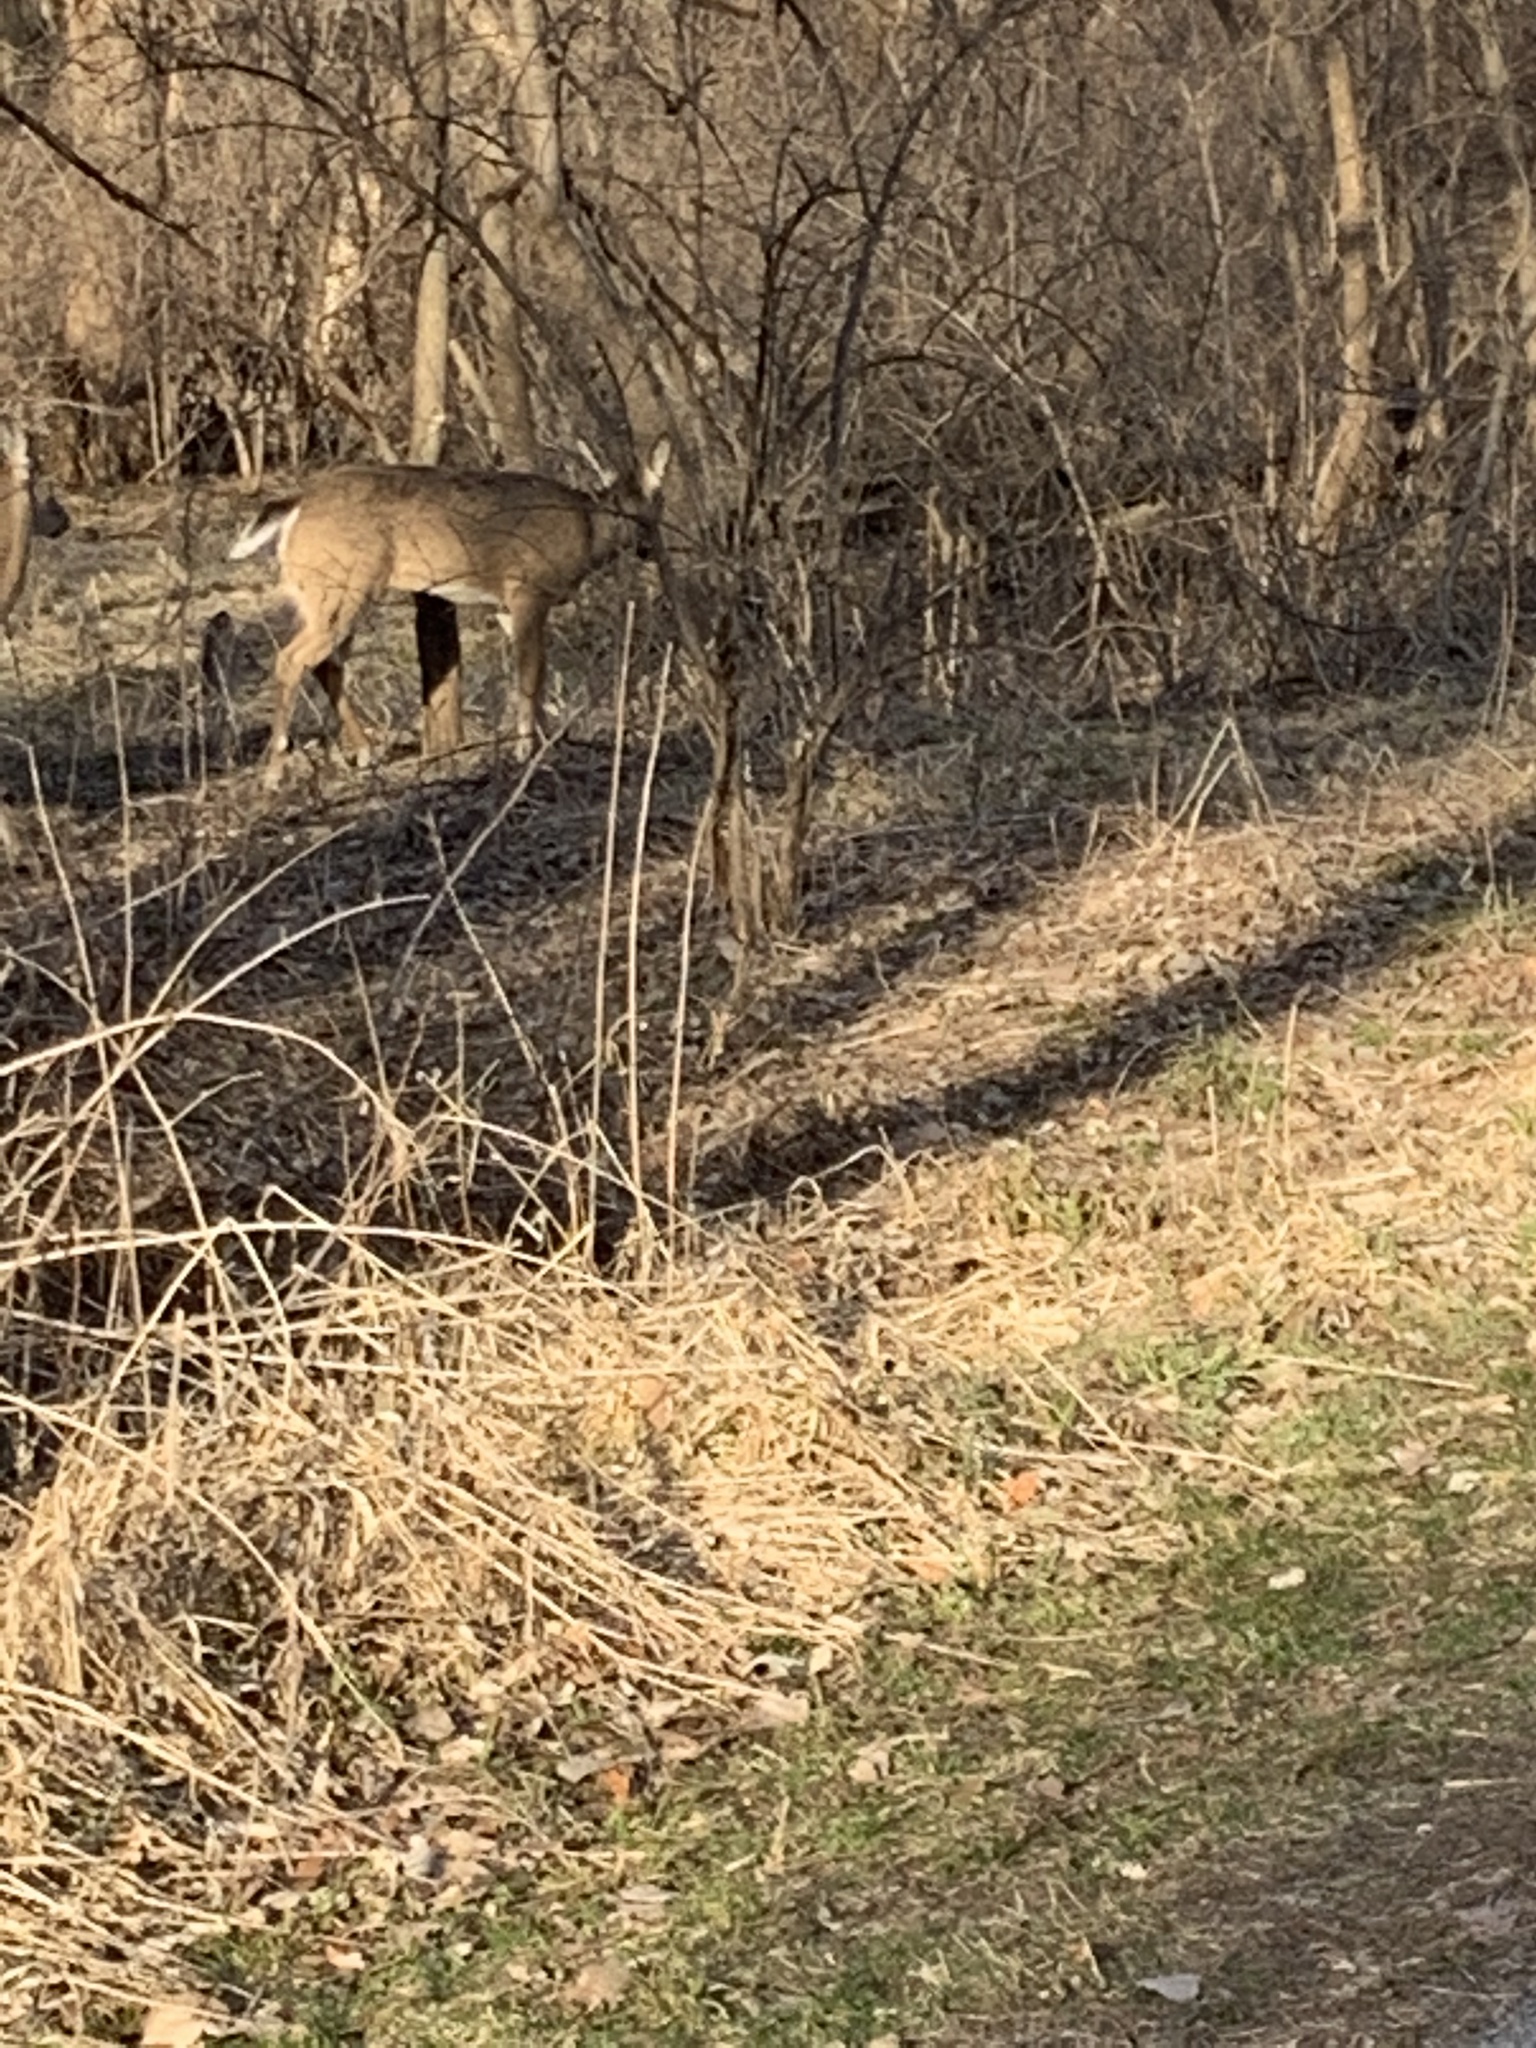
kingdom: Animalia
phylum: Chordata
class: Mammalia
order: Artiodactyla
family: Cervidae
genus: Odocoileus
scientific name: Odocoileus virginianus
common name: White-tailed deer
